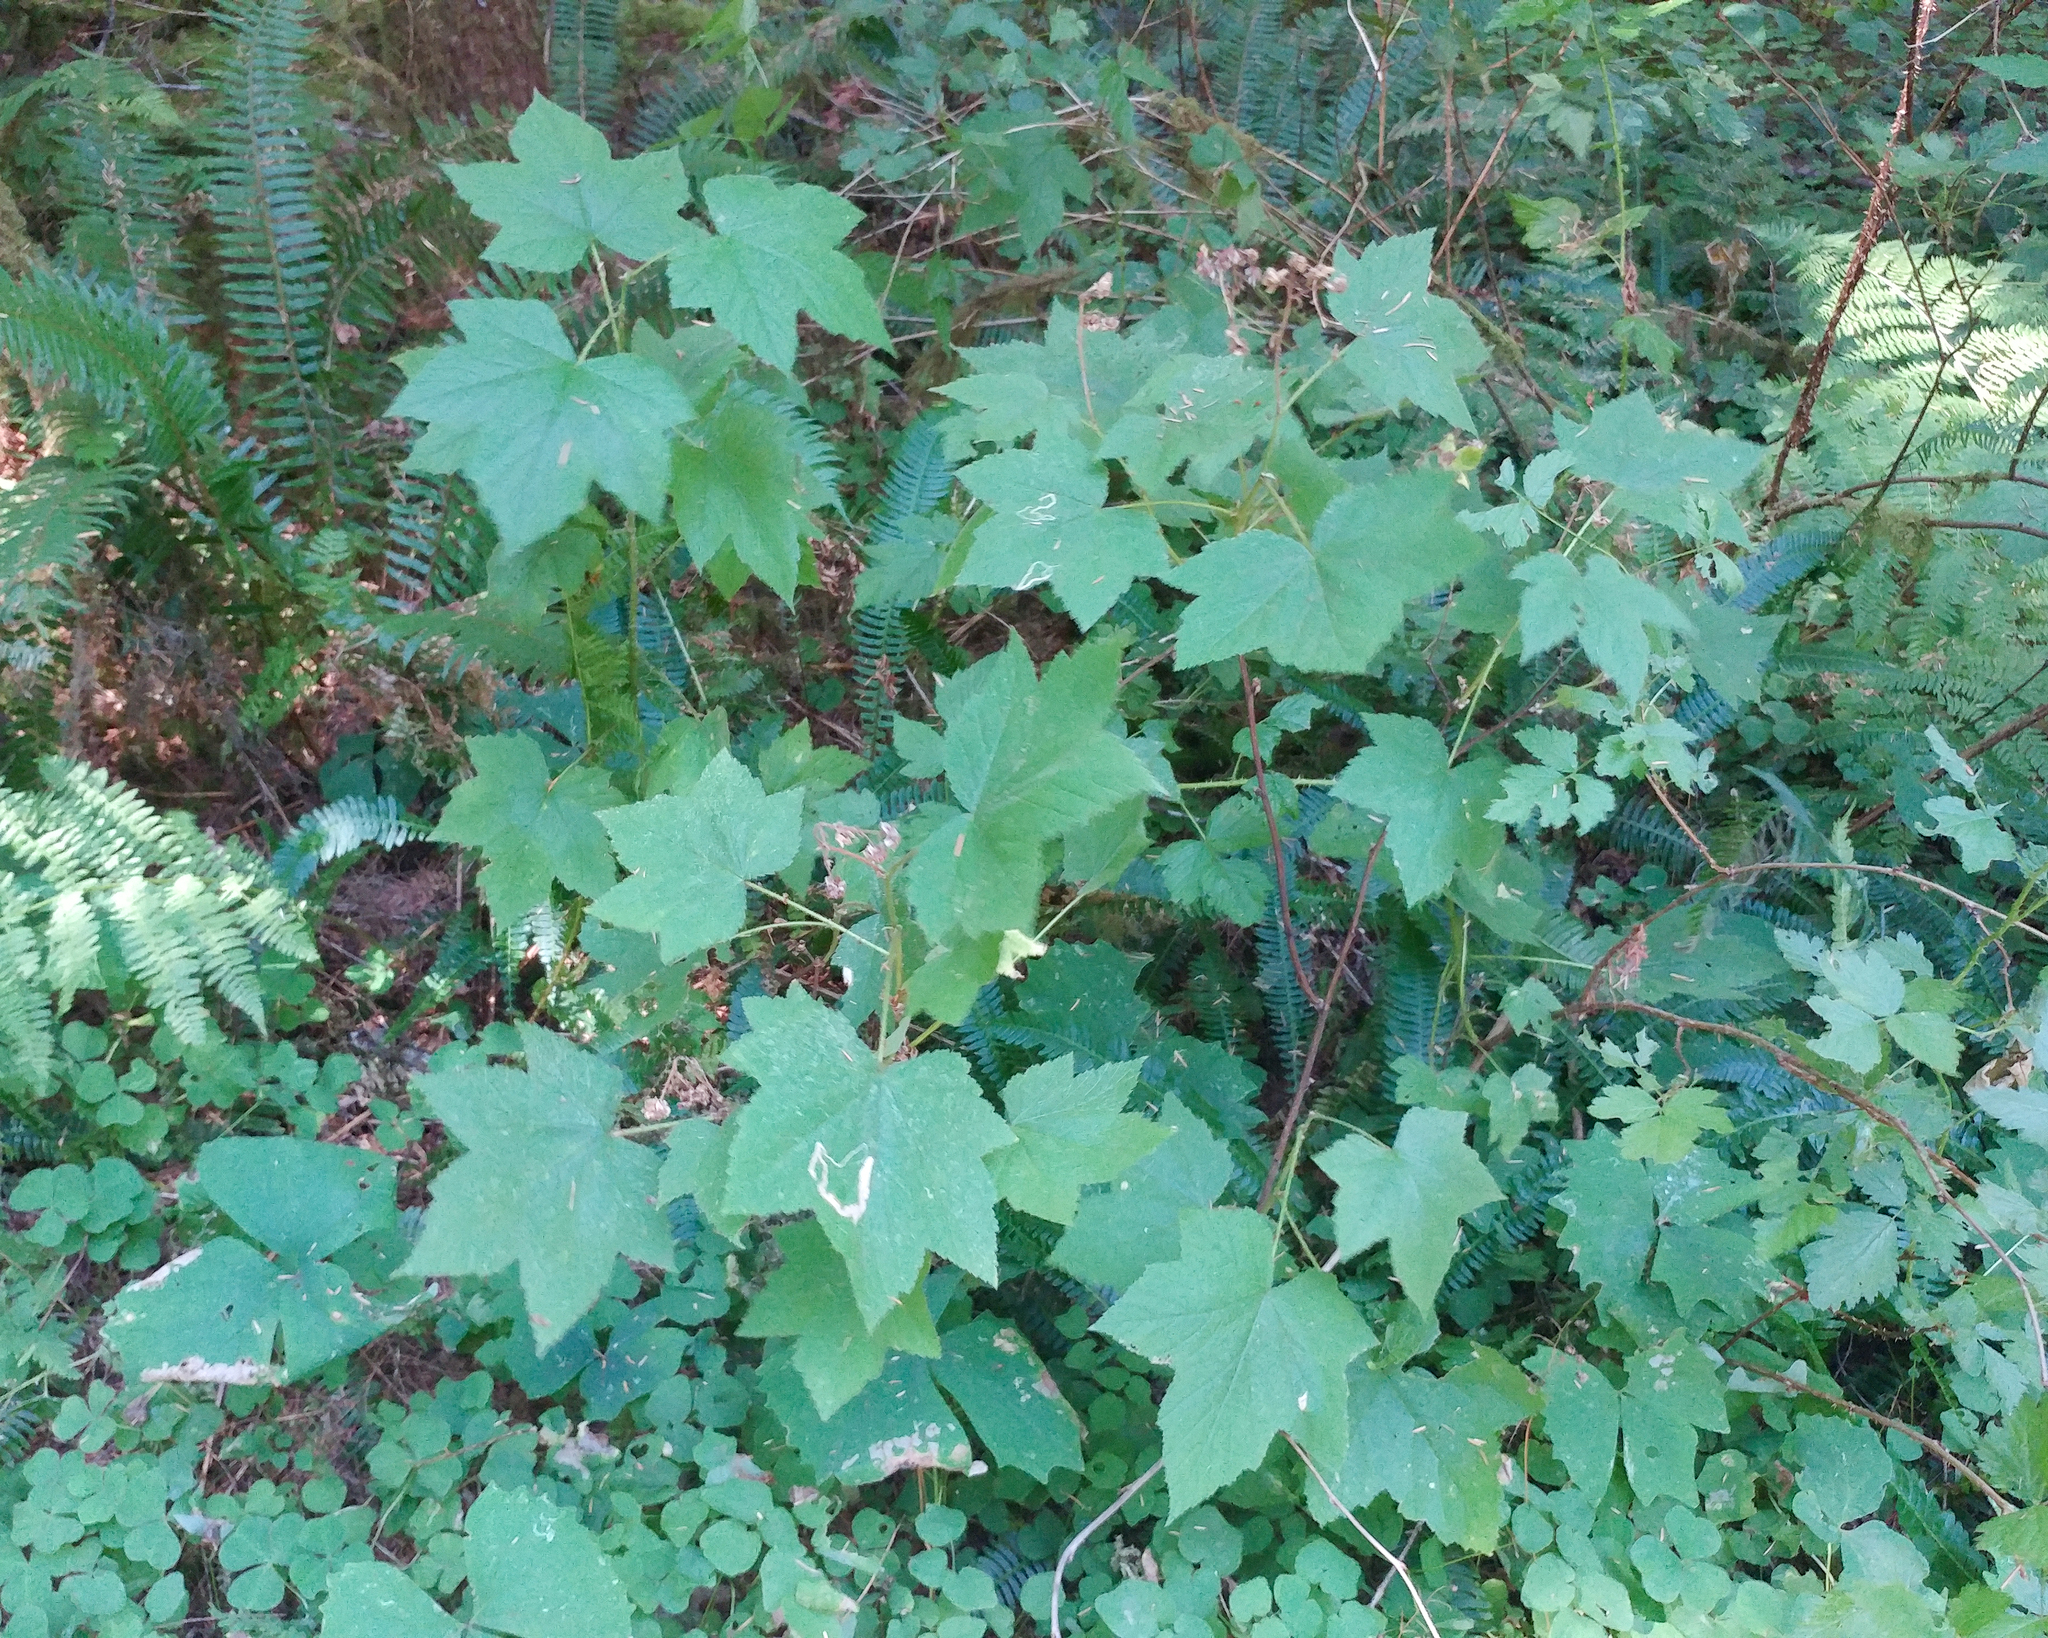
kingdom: Plantae
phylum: Tracheophyta
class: Magnoliopsida
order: Rosales
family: Rosaceae
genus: Rubus
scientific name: Rubus parviflorus
